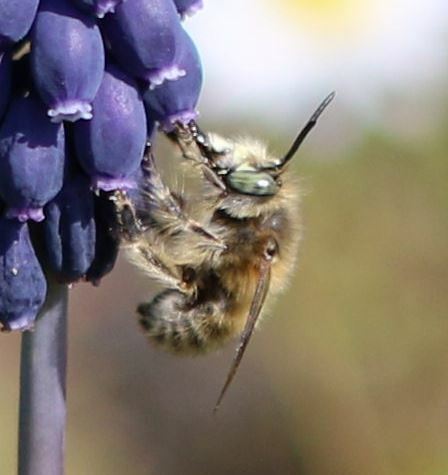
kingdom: Animalia
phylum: Arthropoda
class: Insecta
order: Hymenoptera
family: Apidae
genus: Anthophora
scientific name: Anthophora crinipes
